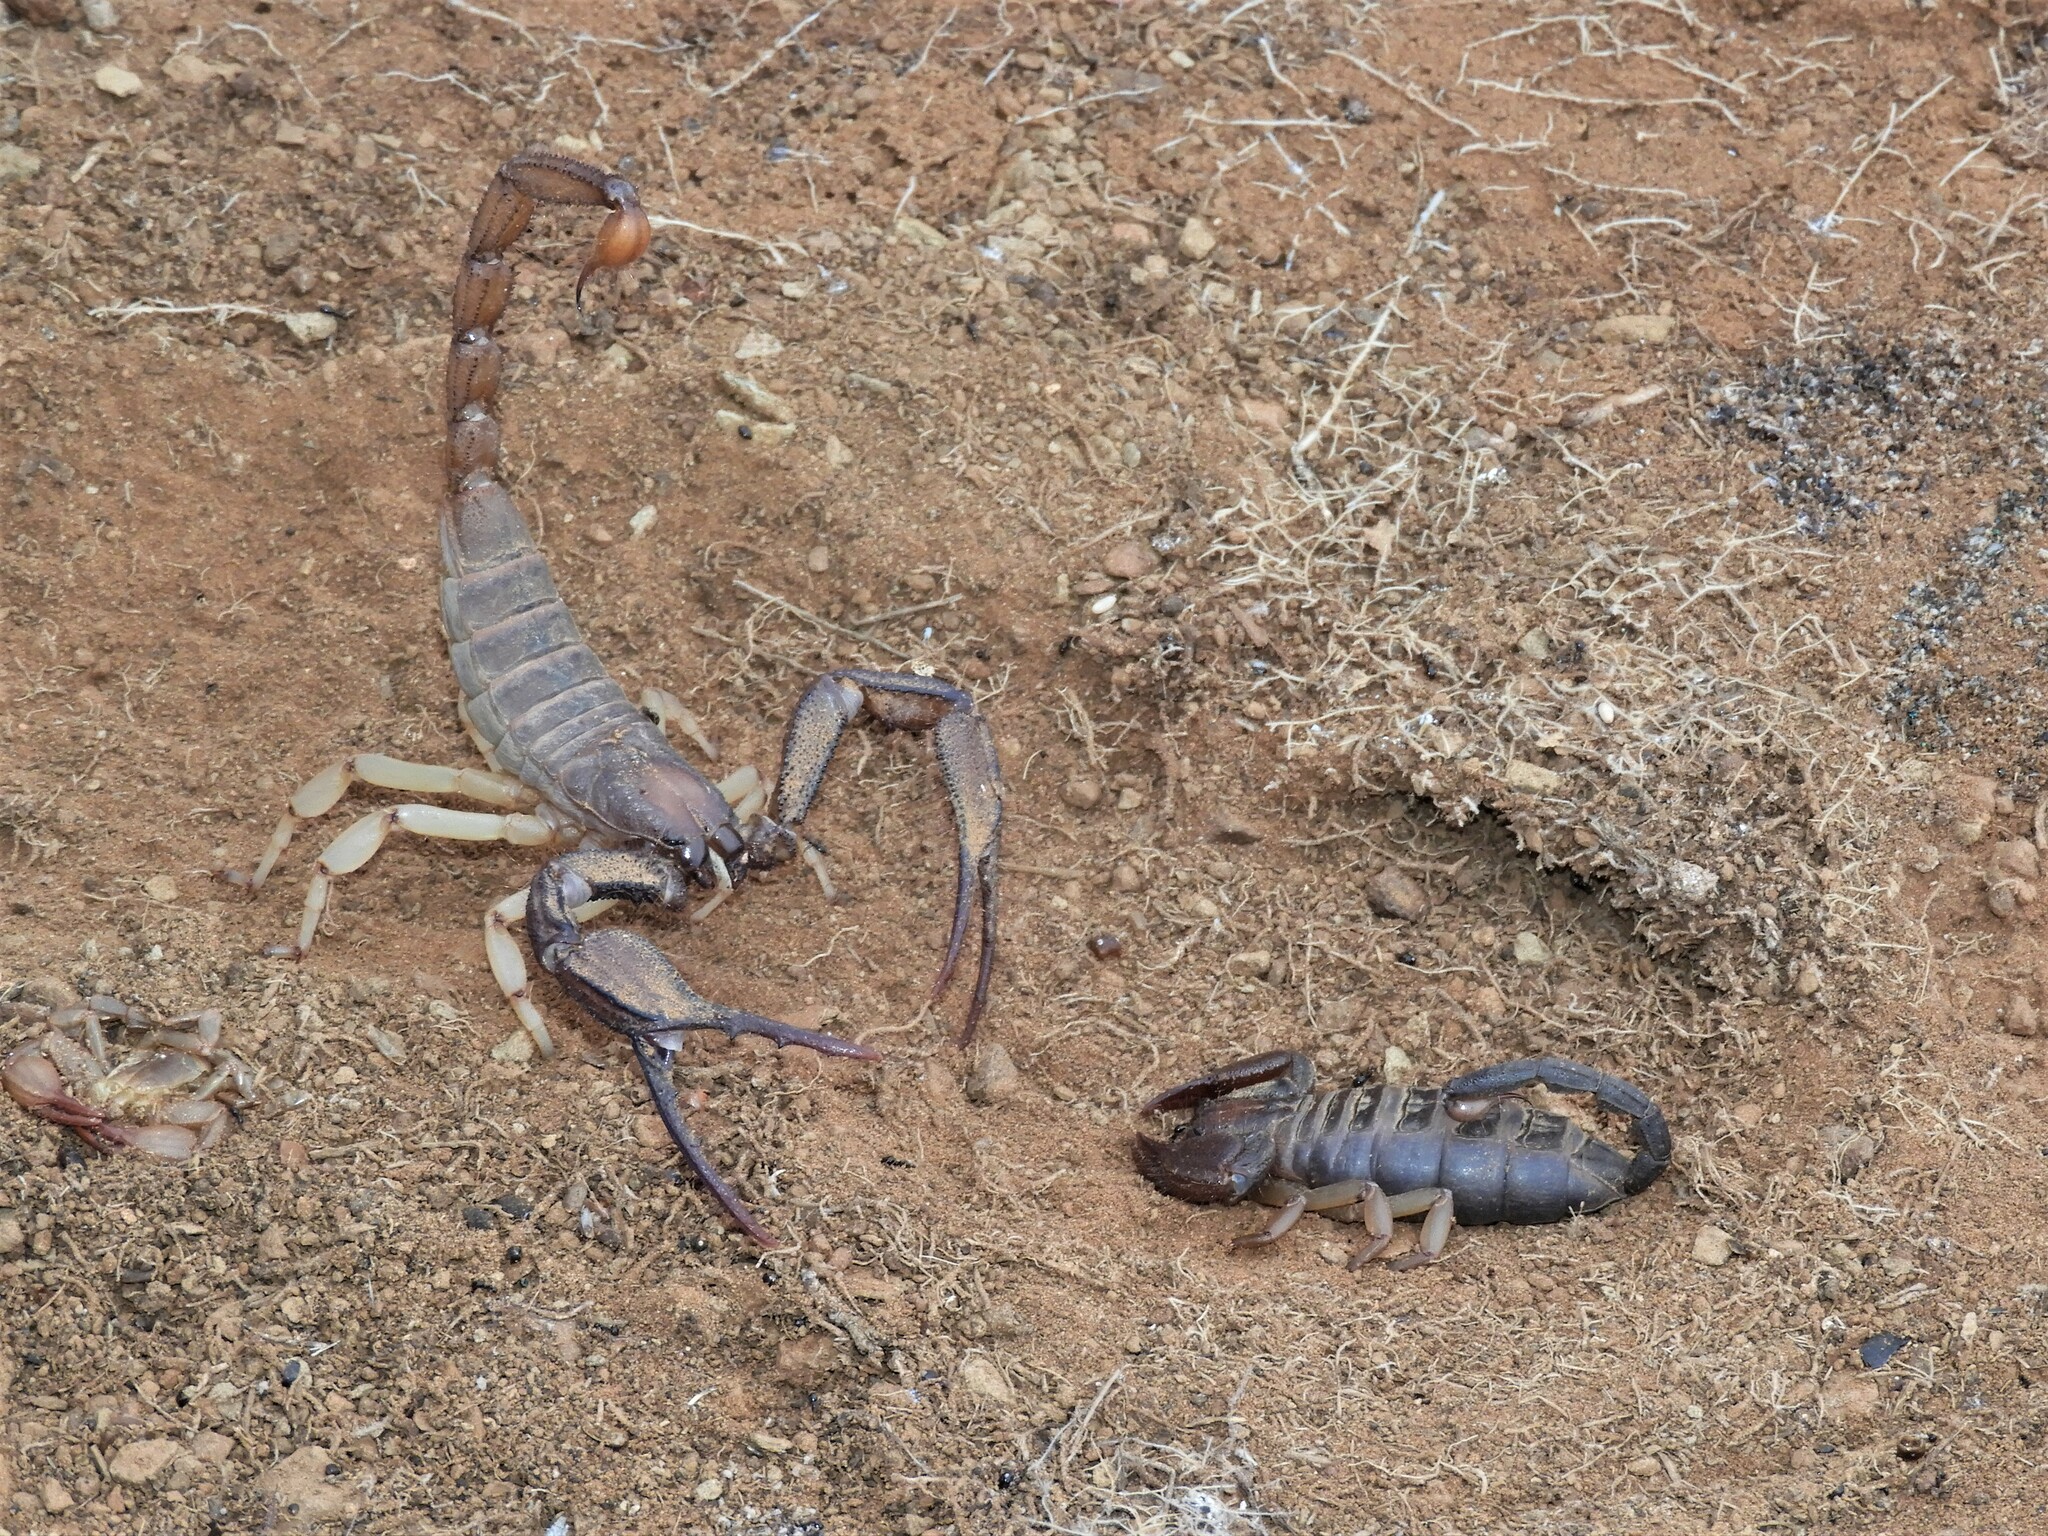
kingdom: Animalia
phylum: Arthropoda
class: Arachnida
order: Scorpiones
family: Scorpionidae
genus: Opistophthalmus
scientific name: Opistophthalmus austerus
